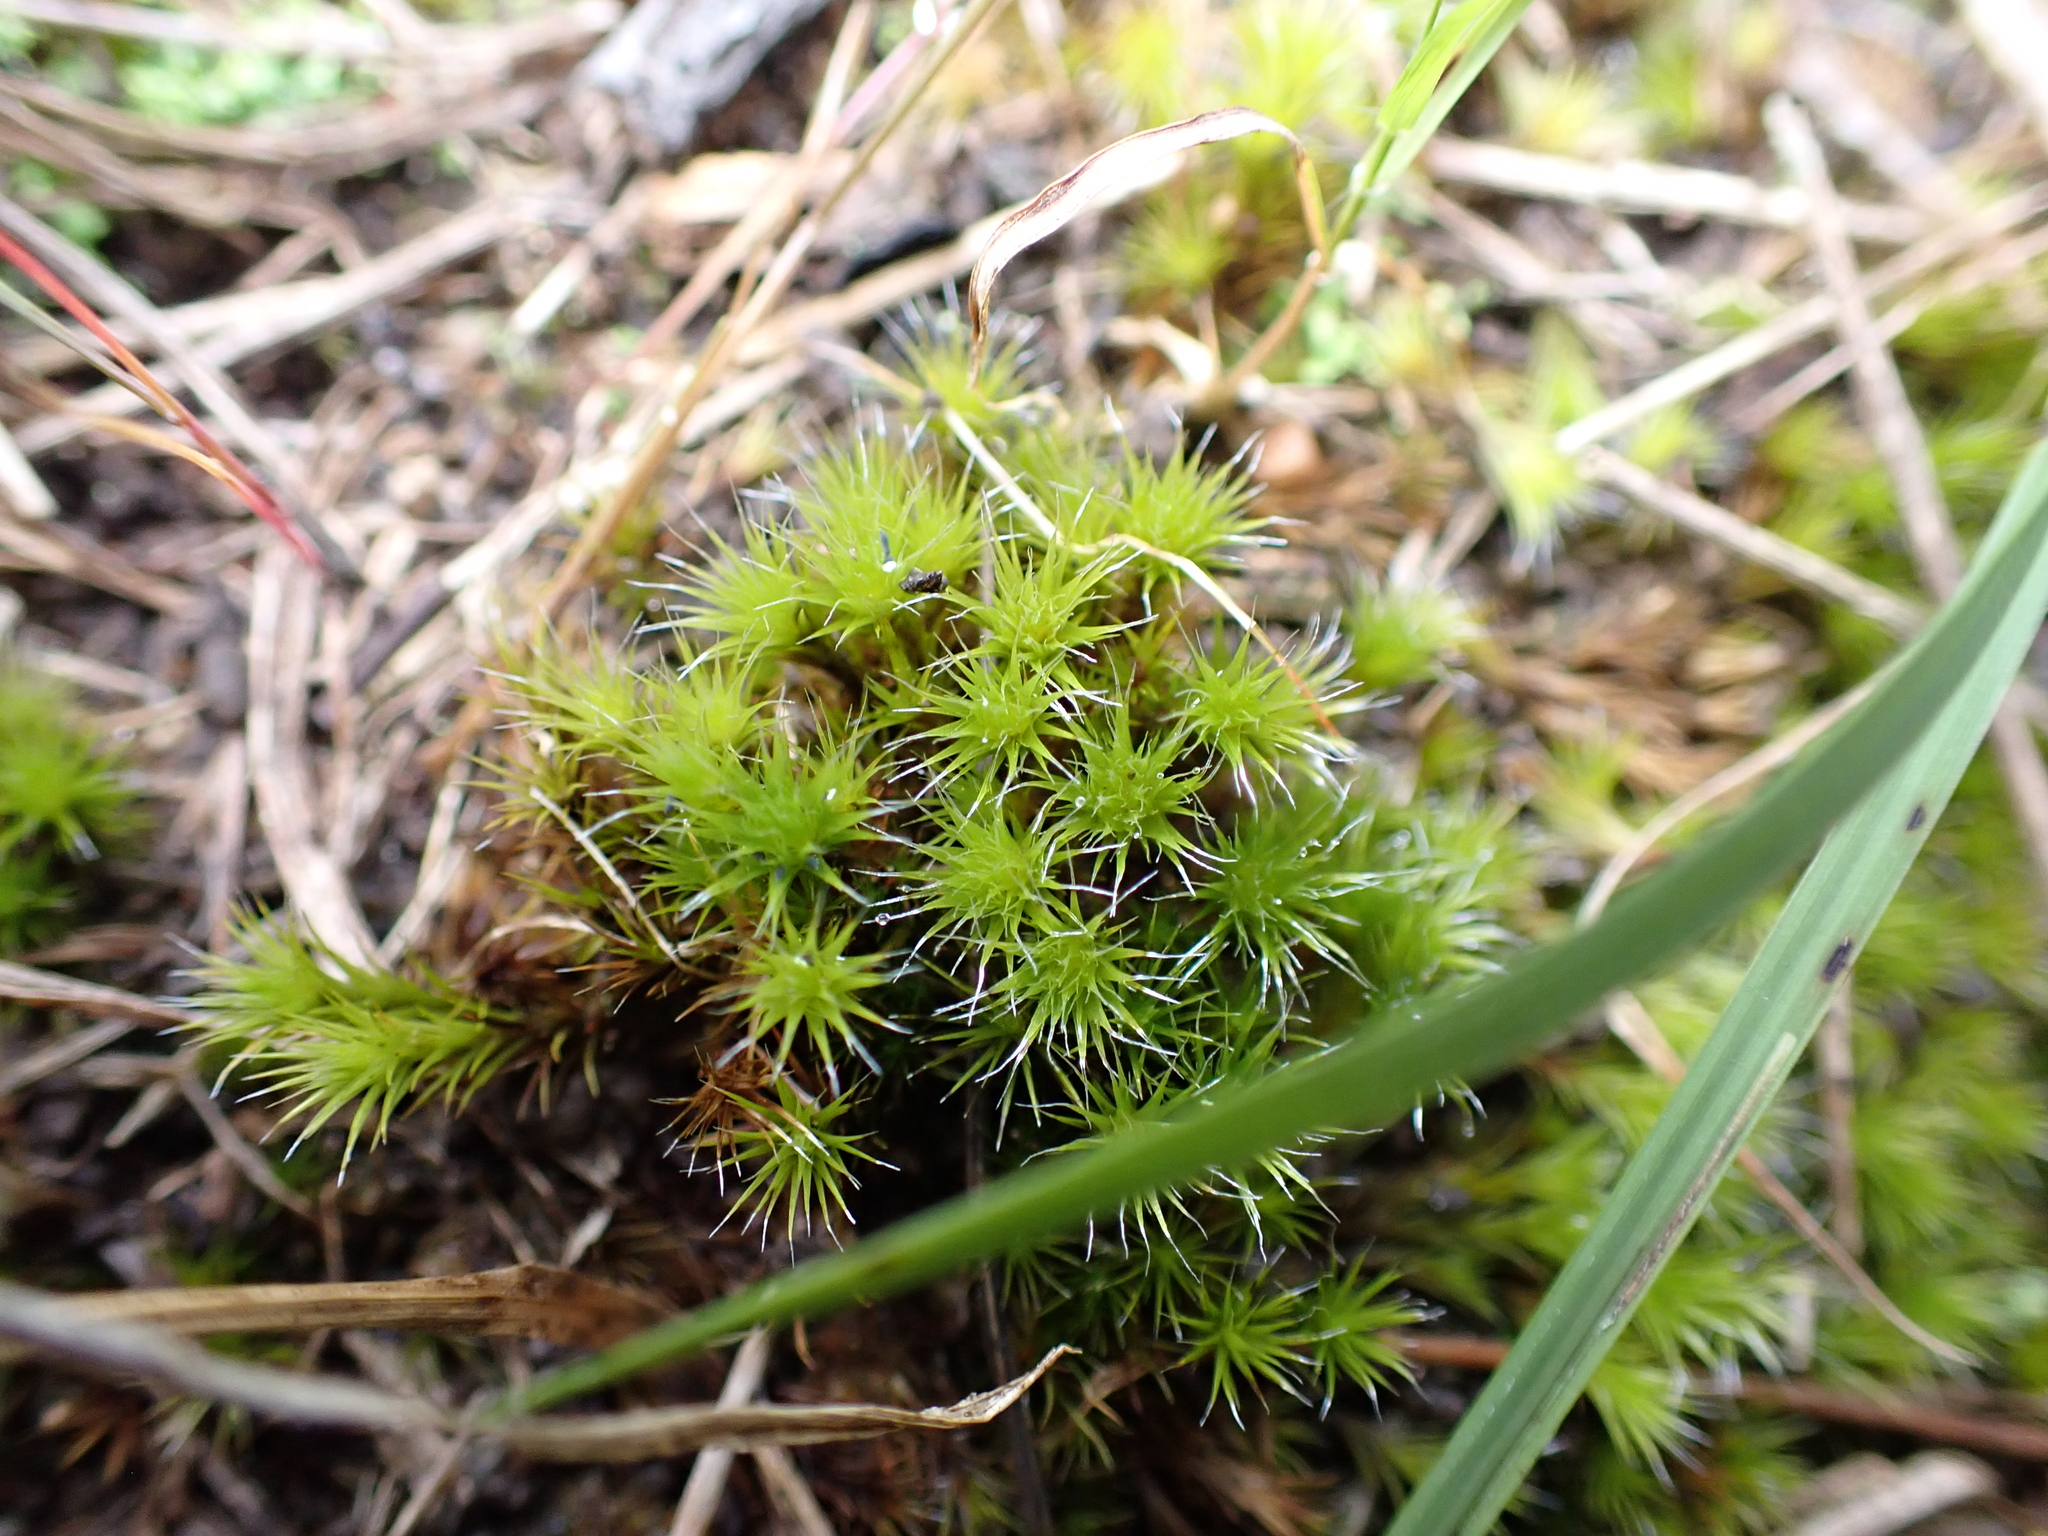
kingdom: Plantae
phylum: Bryophyta
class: Bryopsida
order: Dicranales
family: Leucobryaceae
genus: Campylopus
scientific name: Campylopus introflexus
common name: Heath star moss
